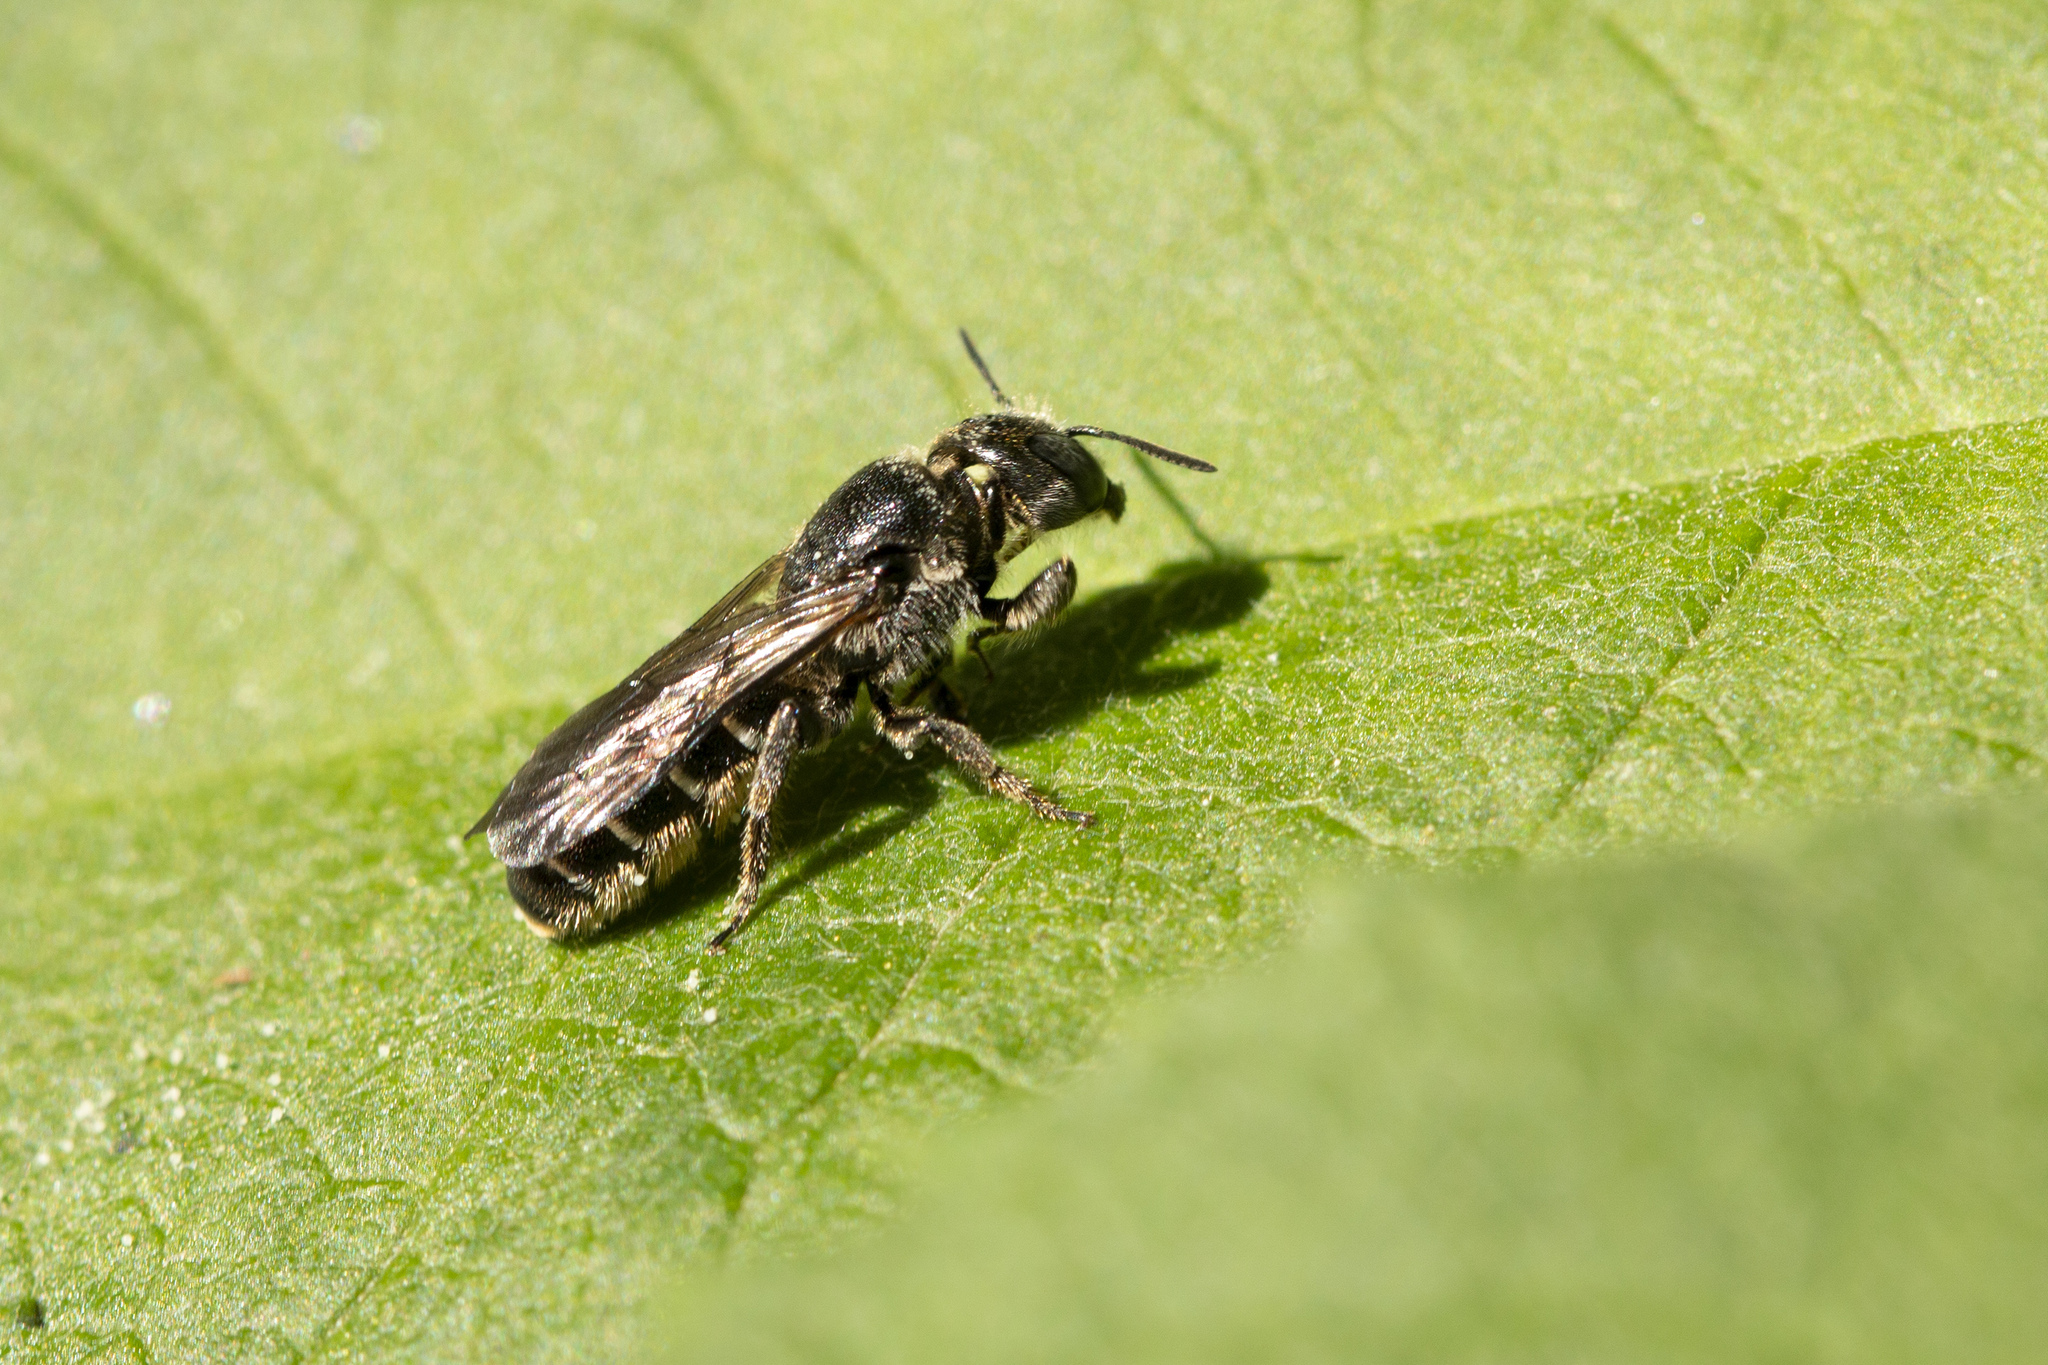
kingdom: Animalia
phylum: Arthropoda
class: Insecta
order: Hymenoptera
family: Megachilidae
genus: Chelostoma
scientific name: Chelostoma rapunculi
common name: Rampion scissor bee
